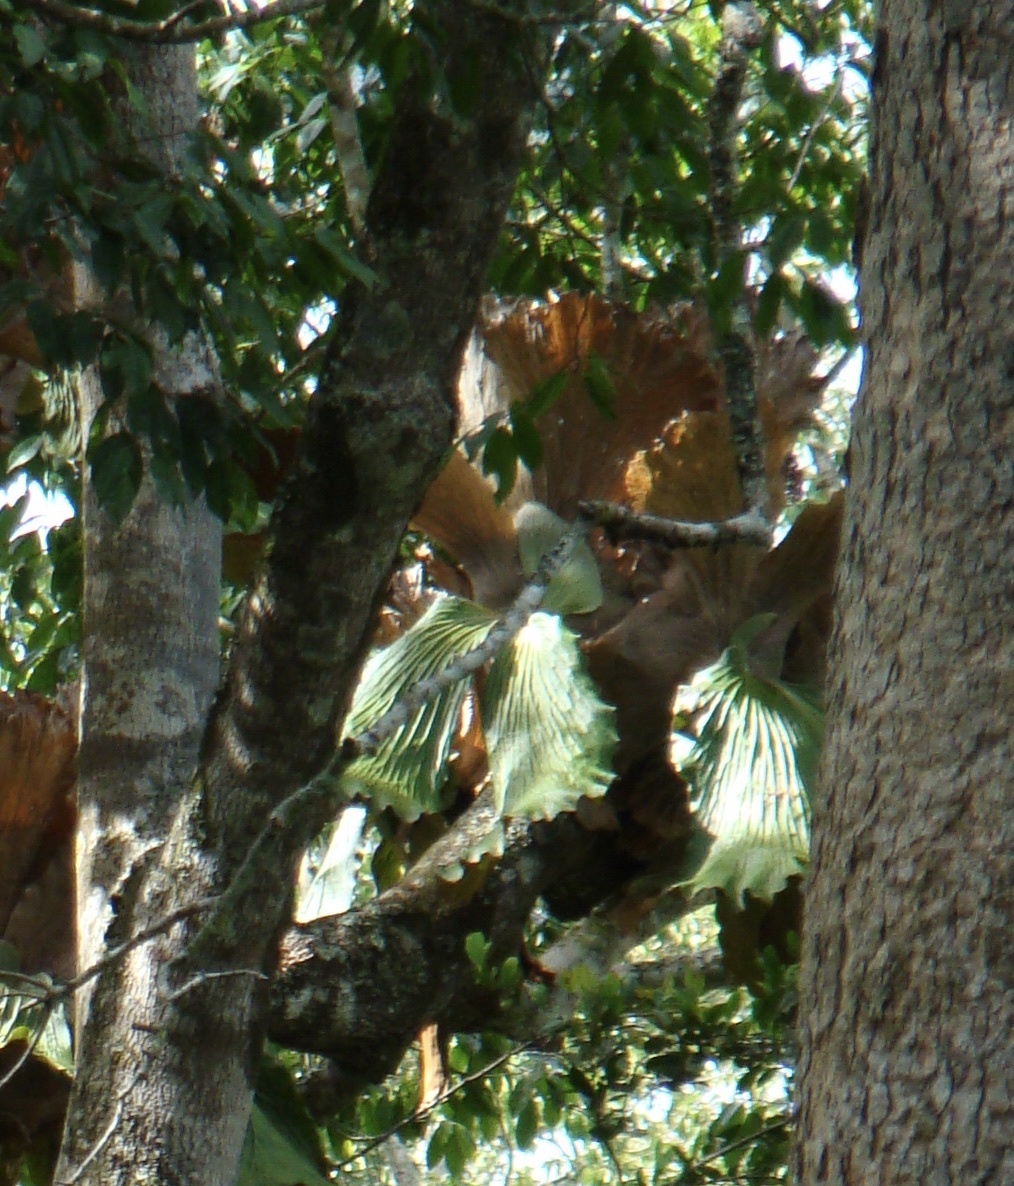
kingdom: Plantae
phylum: Tracheophyta
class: Polypodiopsida
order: Polypodiales
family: Polypodiaceae
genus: Platycerium
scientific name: Platycerium elephantotis
